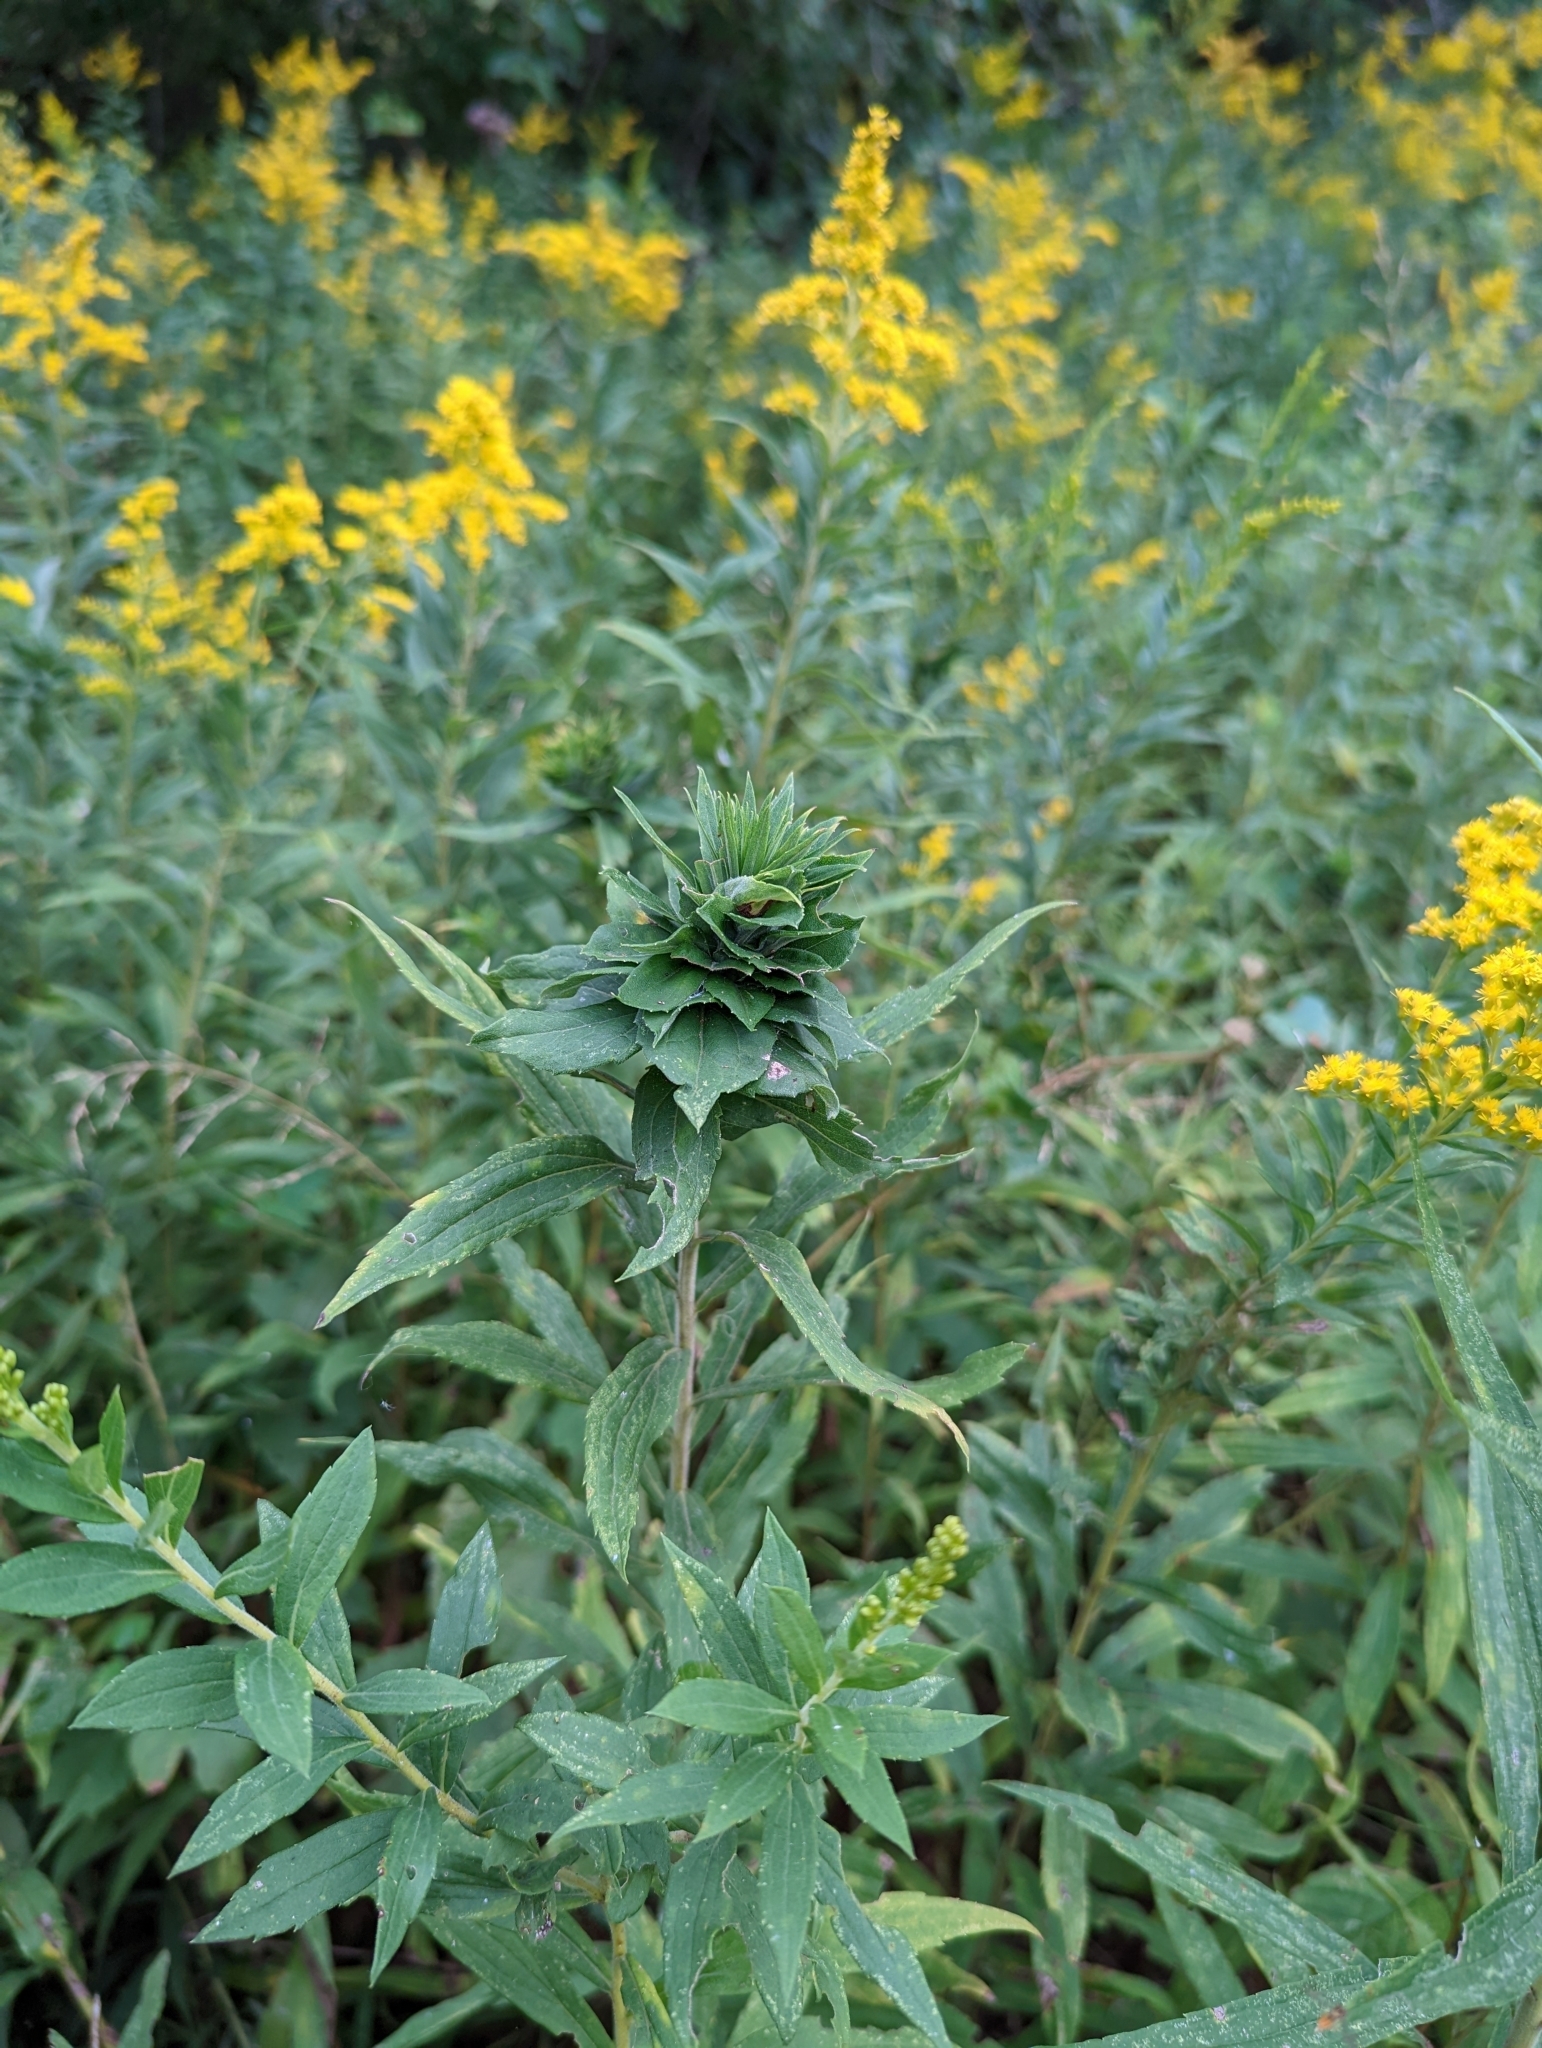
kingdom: Animalia
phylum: Arthropoda
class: Insecta
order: Diptera
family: Cecidomyiidae
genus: Rhopalomyia
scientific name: Rhopalomyia solidaginis
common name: Goldenrod bunch gall midge
